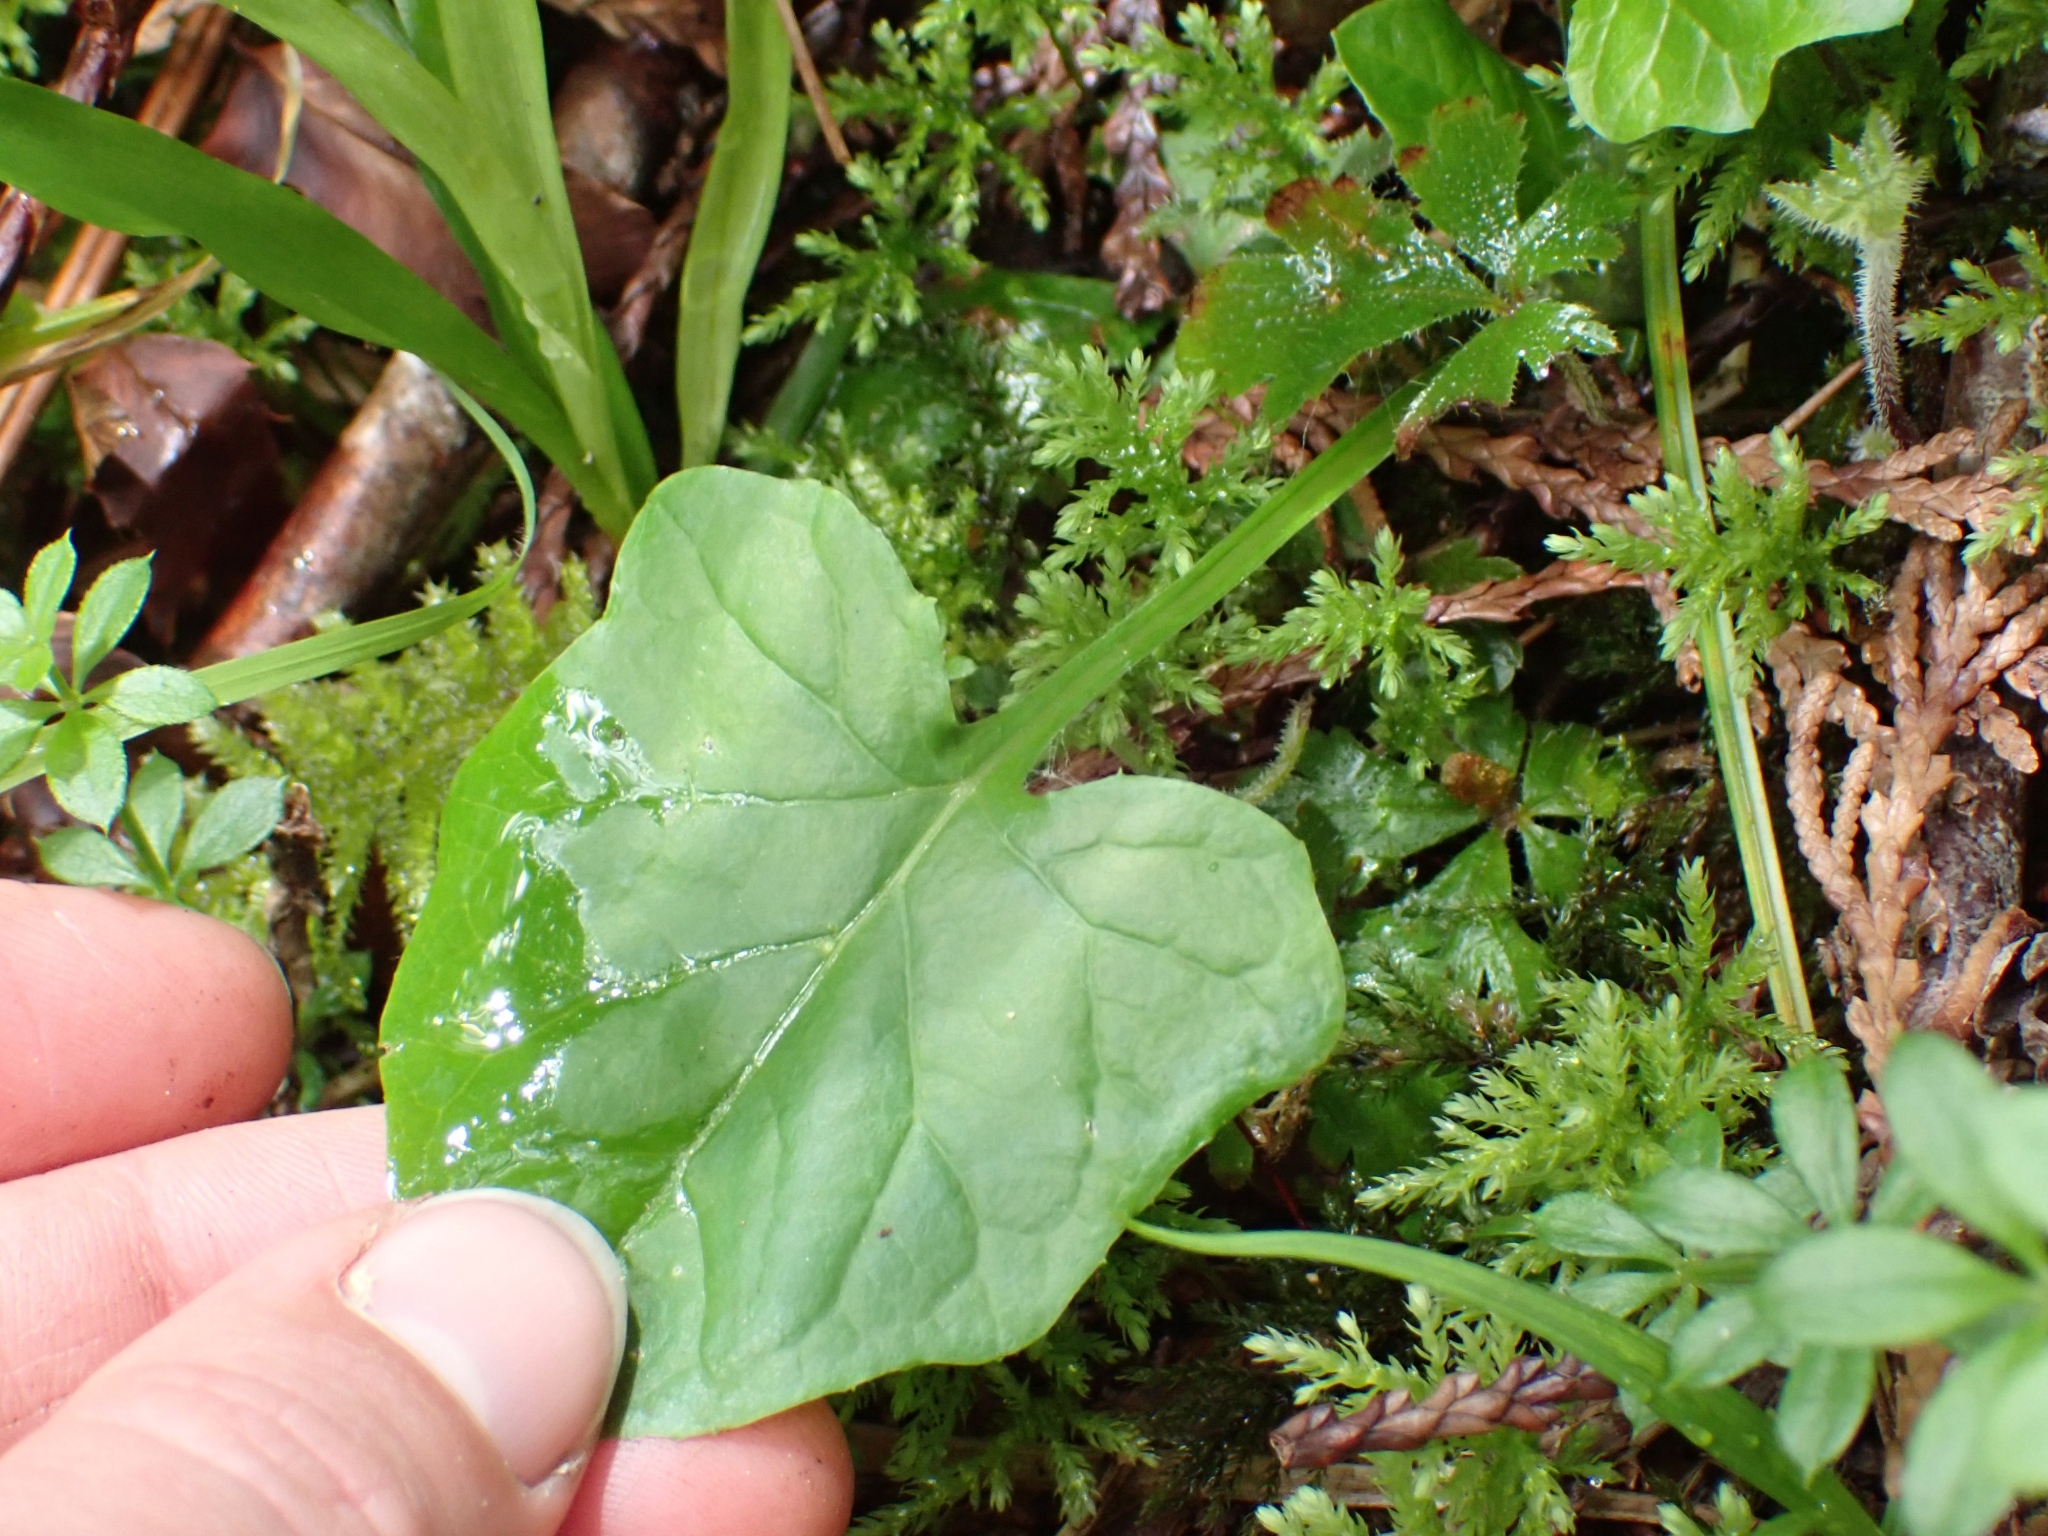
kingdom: Plantae
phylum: Tracheophyta
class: Magnoliopsida
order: Asterales
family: Asteraceae
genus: Adenocaulon
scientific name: Adenocaulon bicolor
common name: Trailplant
